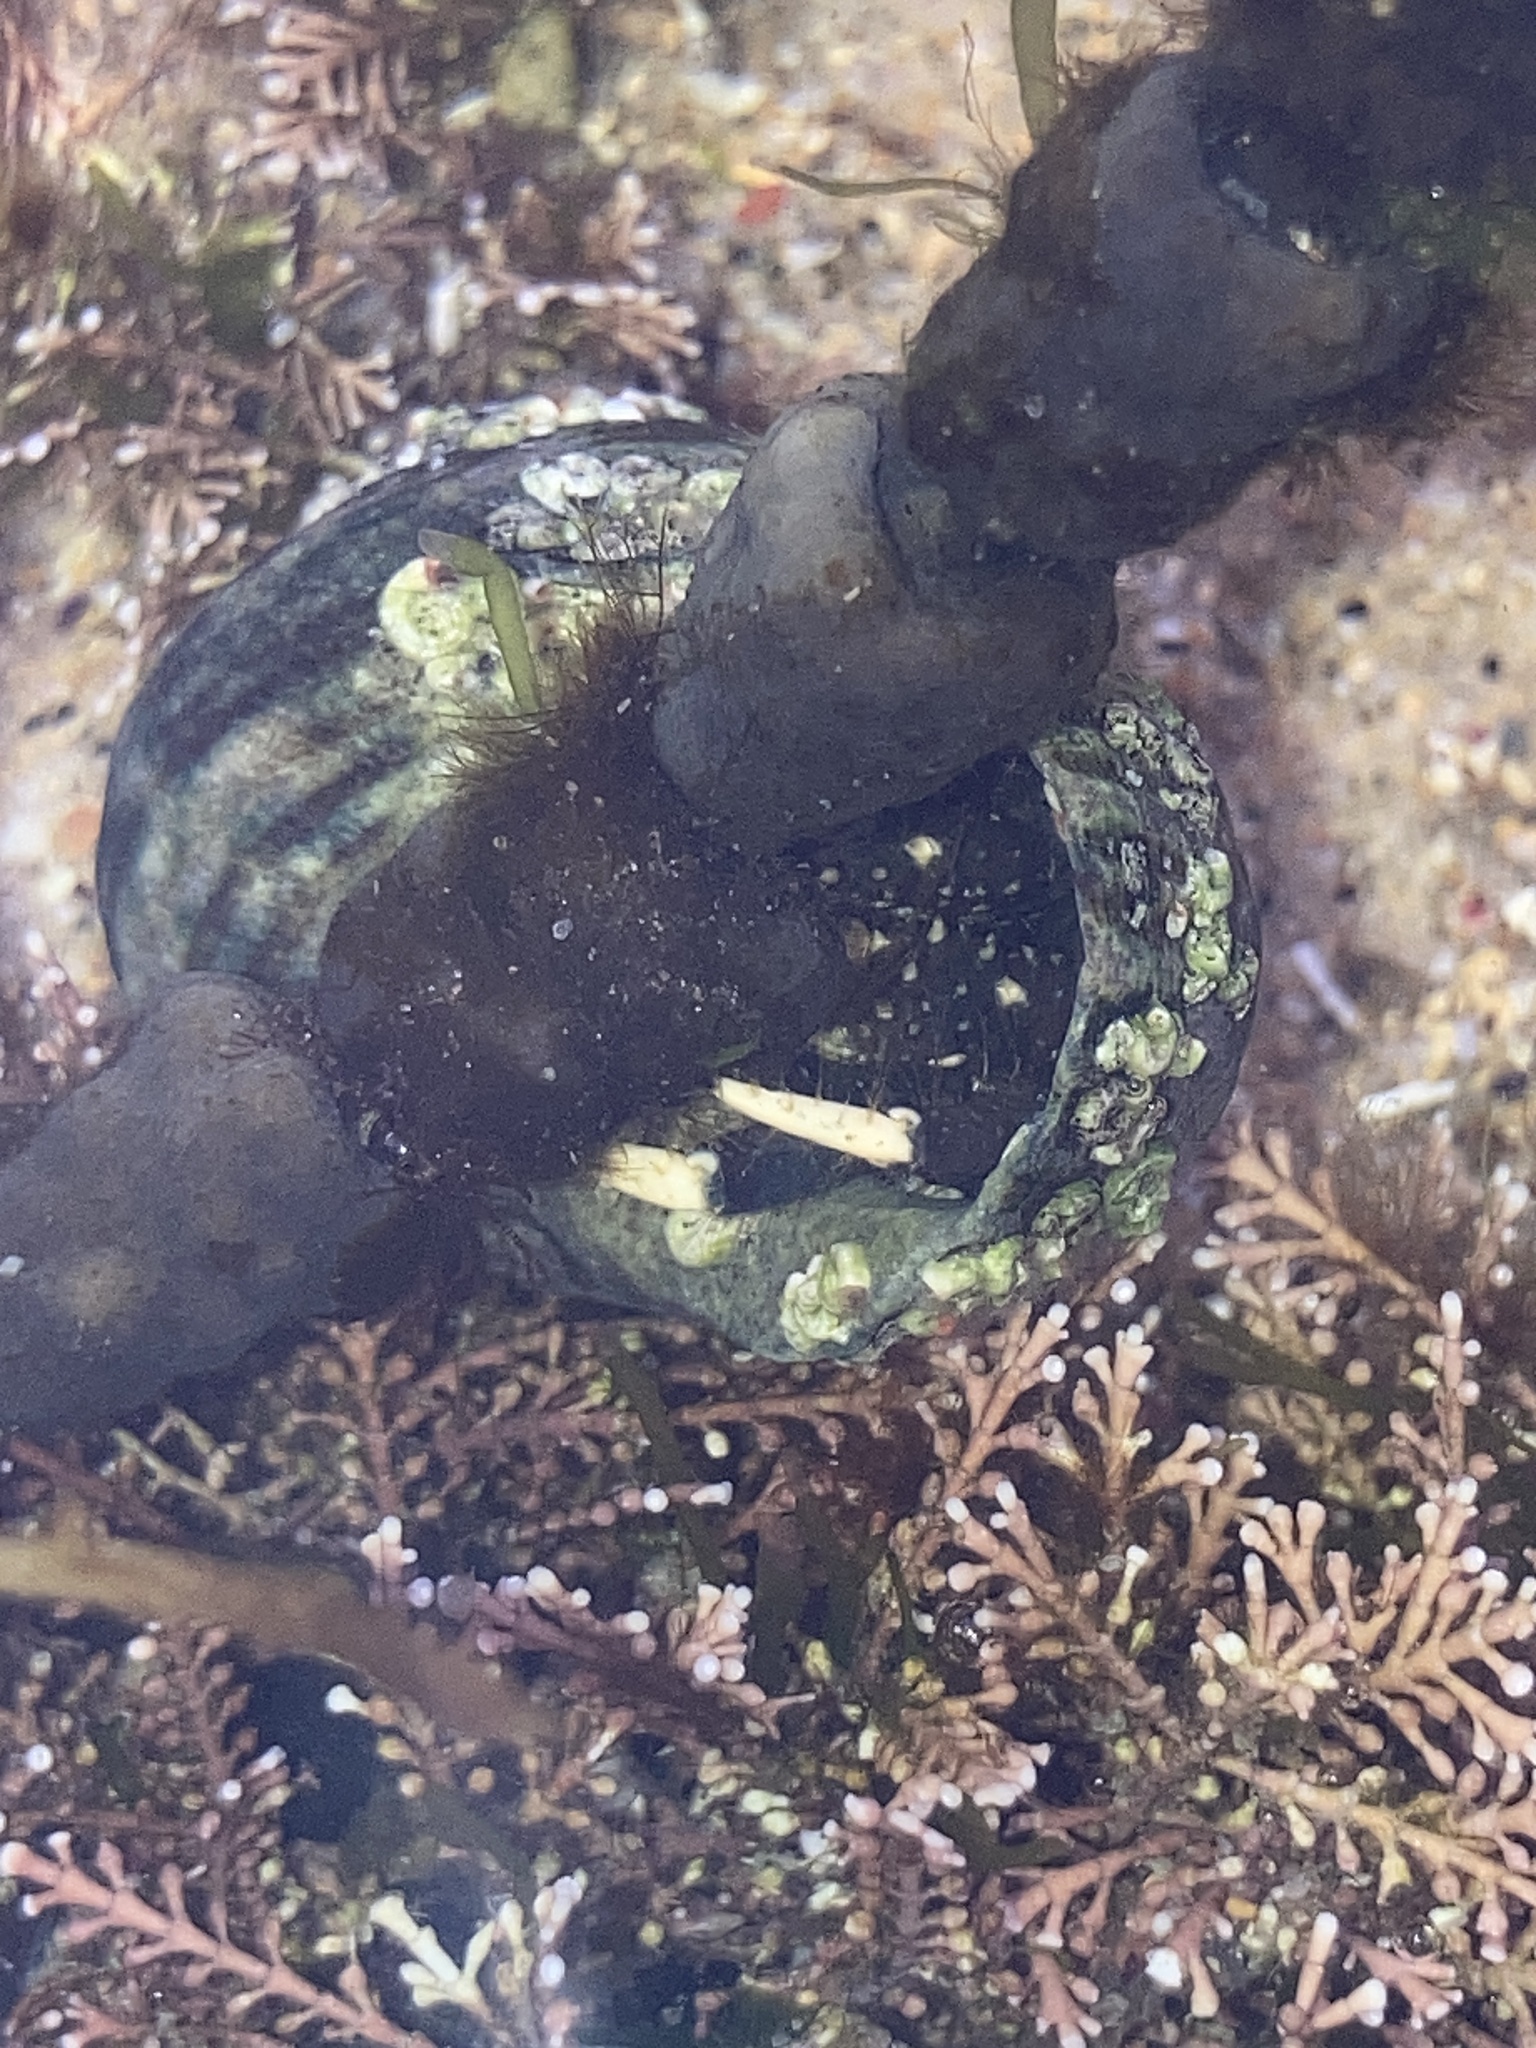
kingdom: Animalia
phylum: Arthropoda
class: Malacostraca
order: Decapoda
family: Diogenidae
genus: Clibanarius
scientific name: Clibanarius virescens
